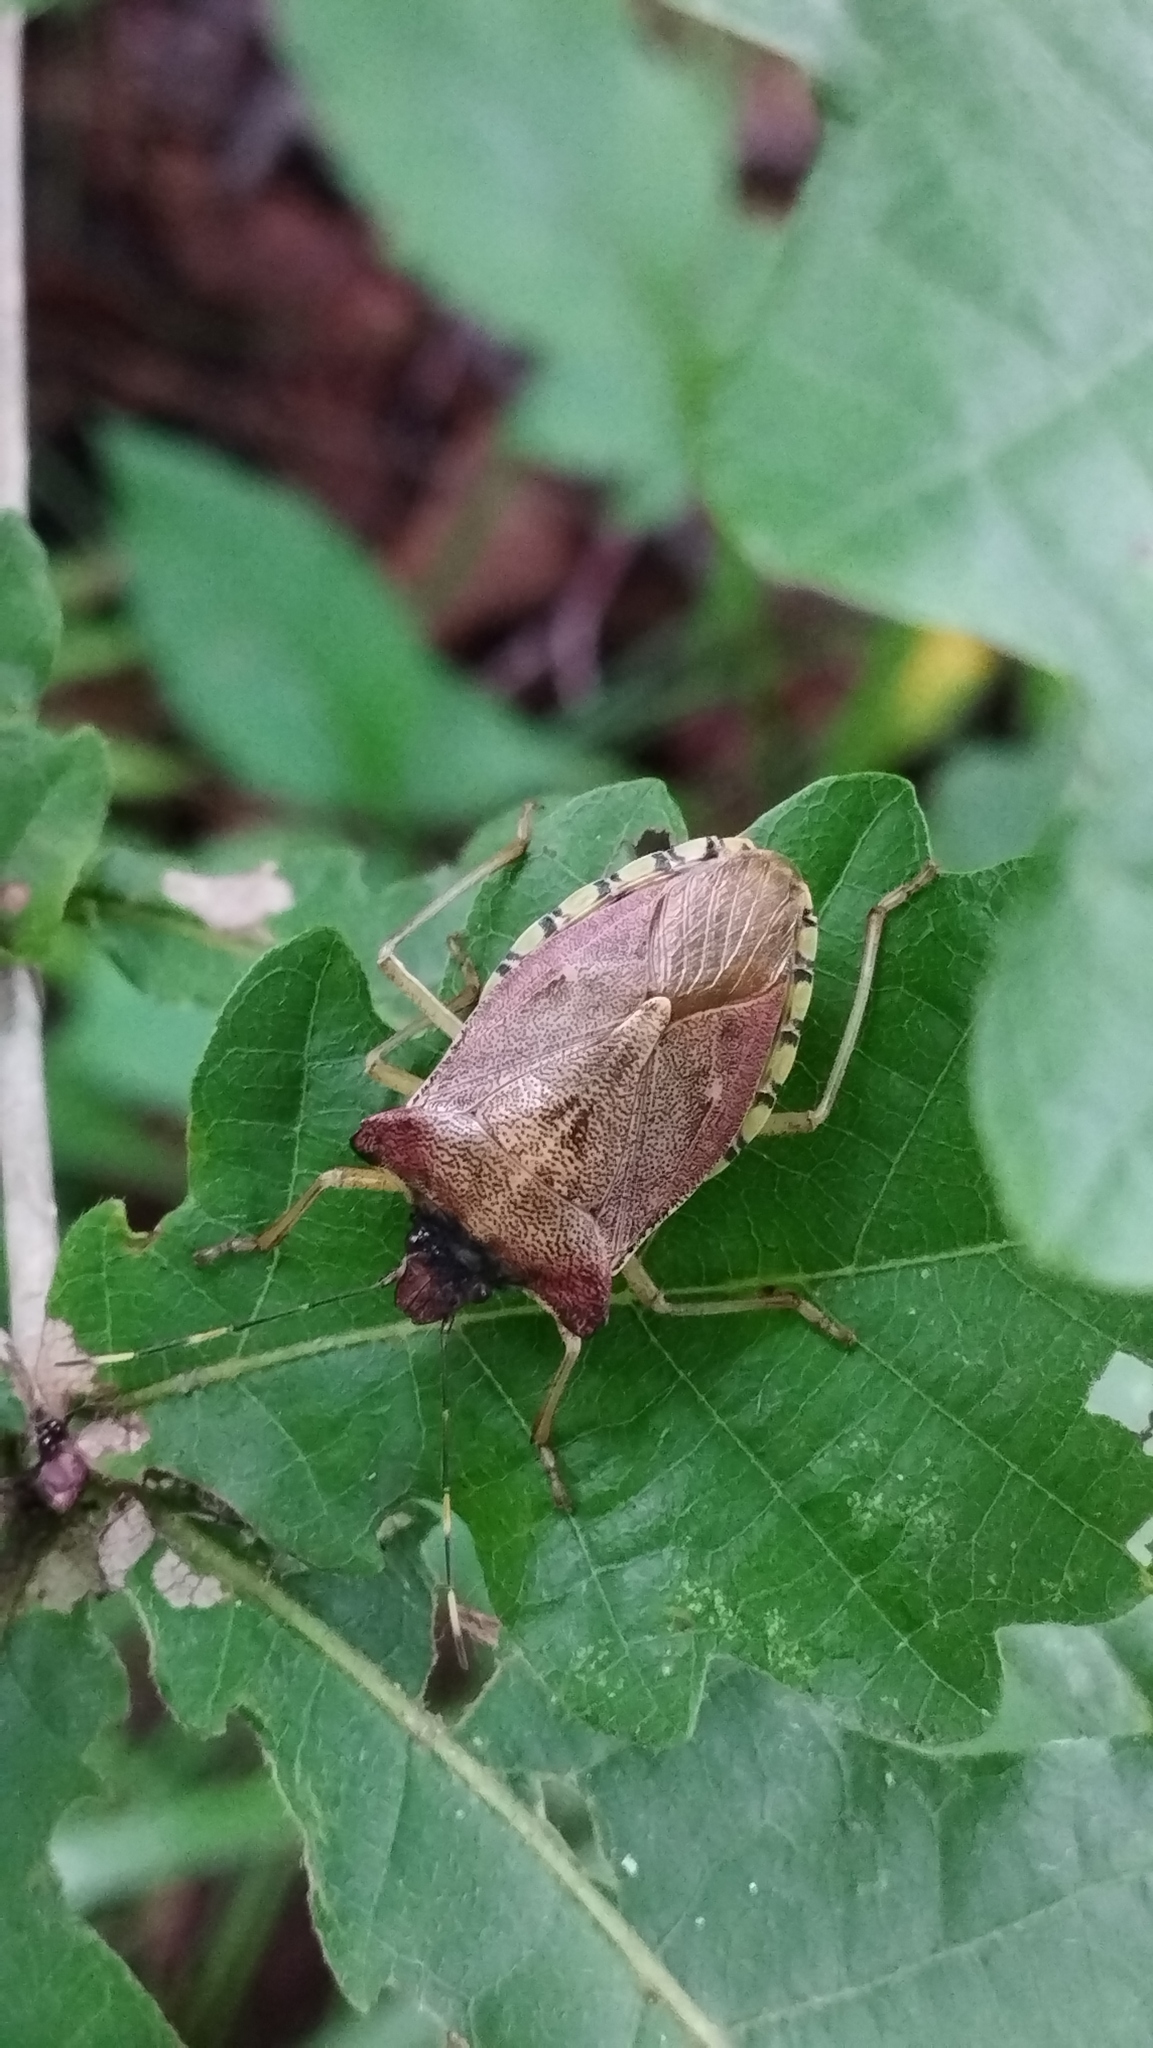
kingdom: Animalia
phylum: Arthropoda
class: Insecta
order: Hemiptera
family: Pentatomidae
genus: Pentatoma
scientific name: Pentatoma
